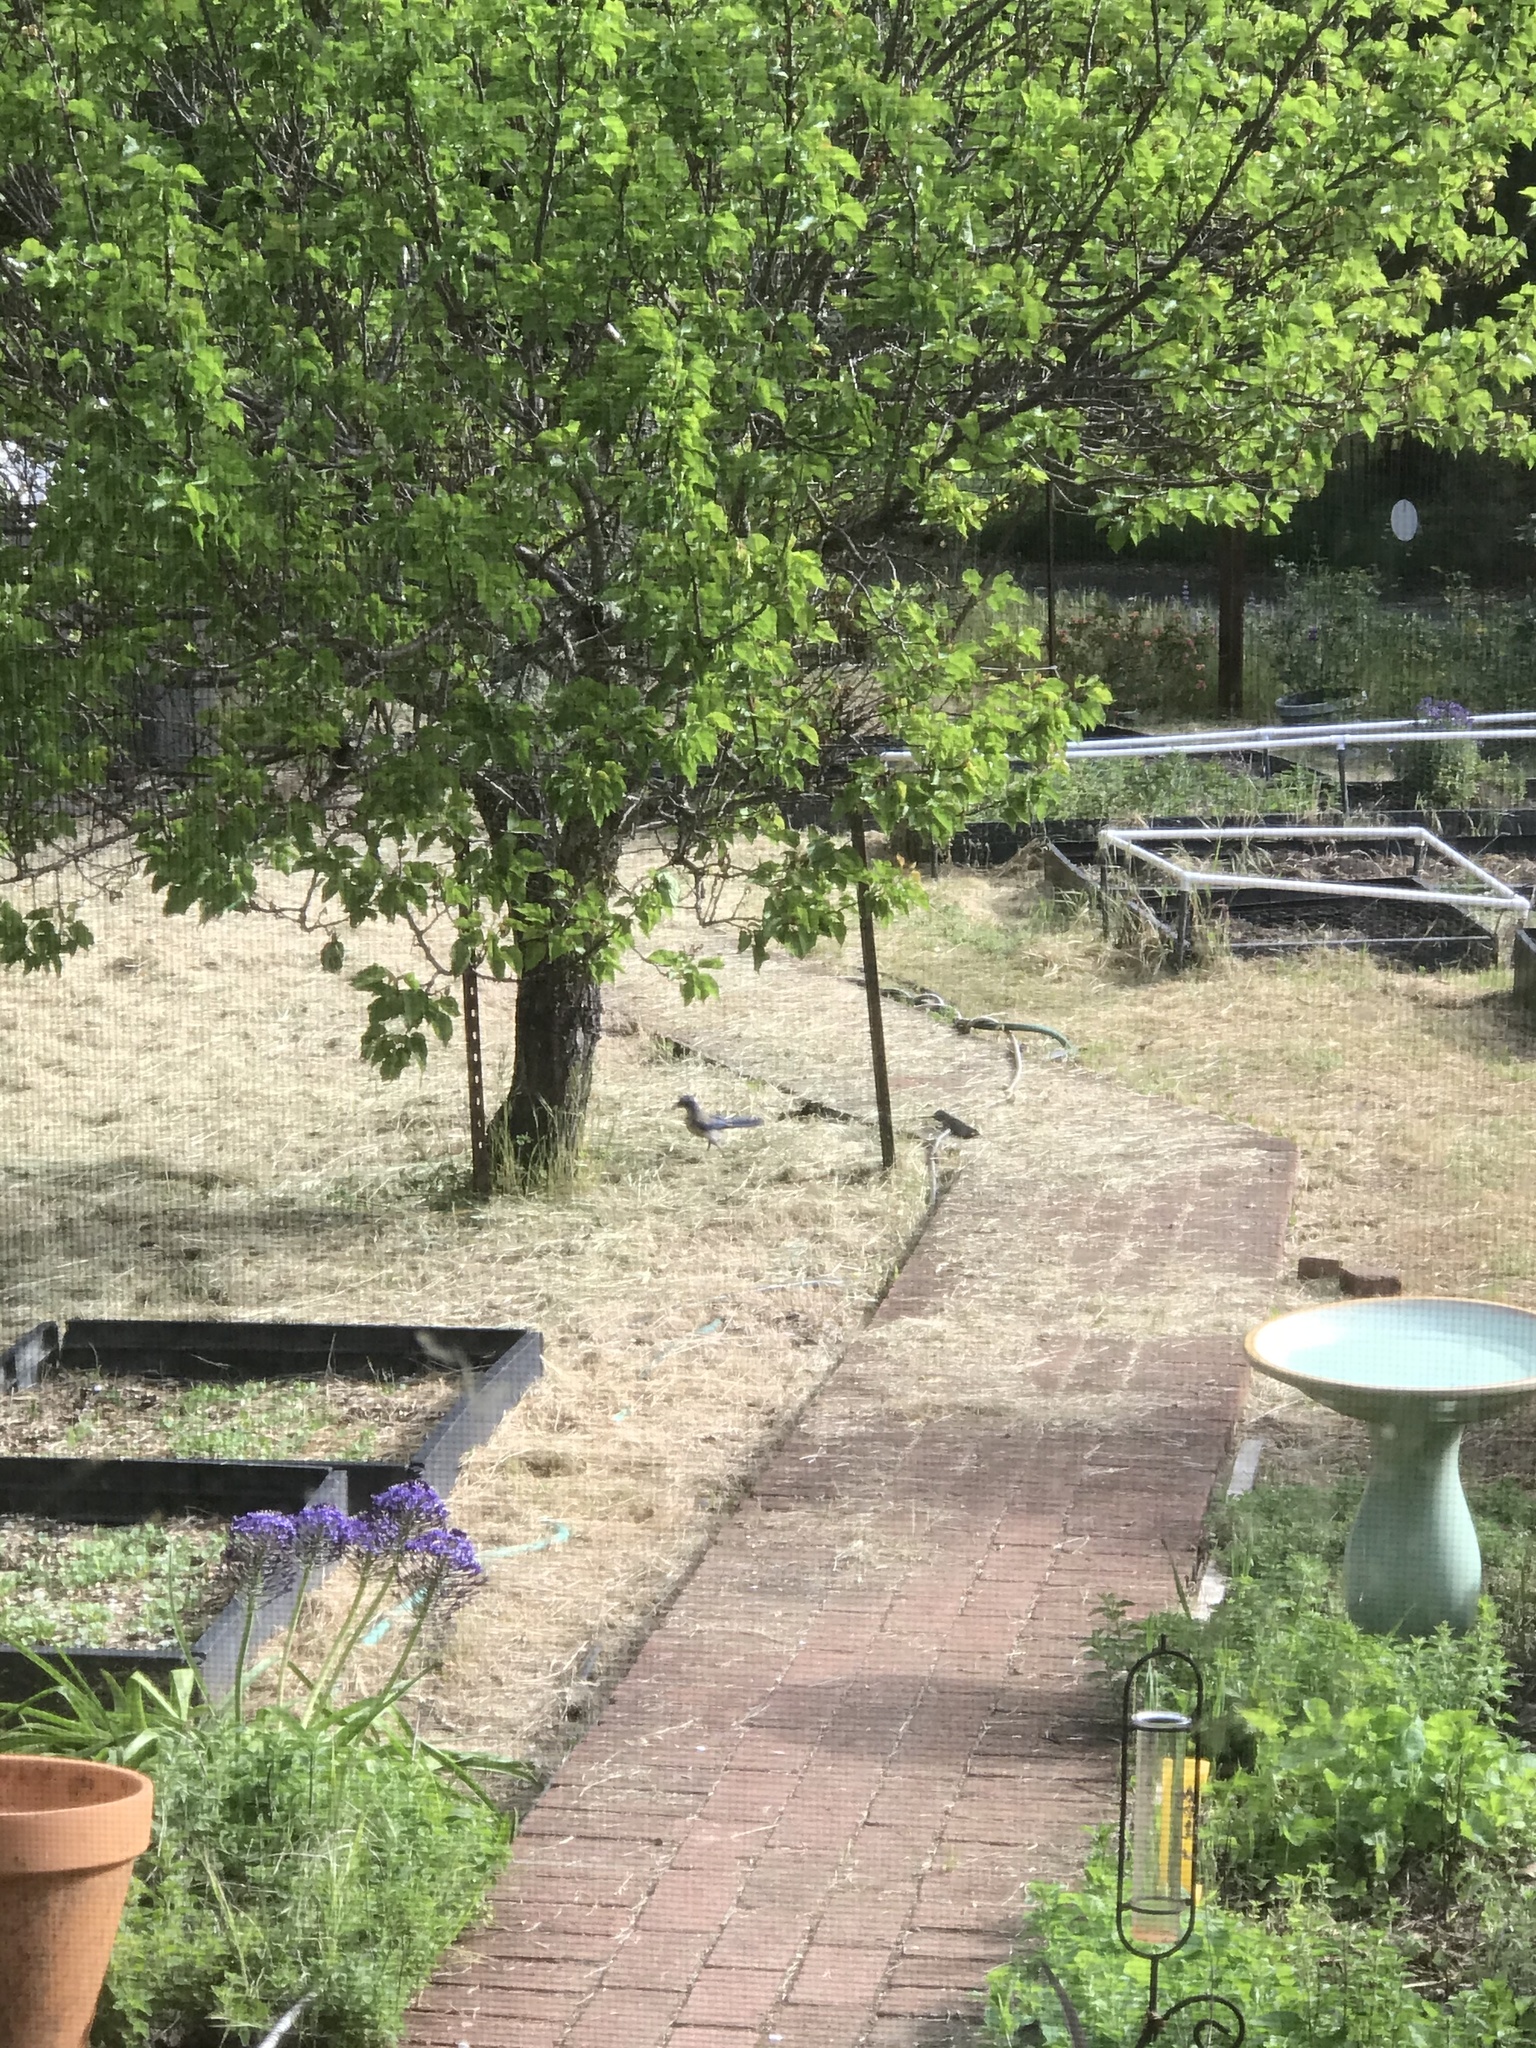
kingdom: Animalia
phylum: Chordata
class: Aves
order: Passeriformes
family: Corvidae
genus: Aphelocoma
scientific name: Aphelocoma californica
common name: California scrub-jay
